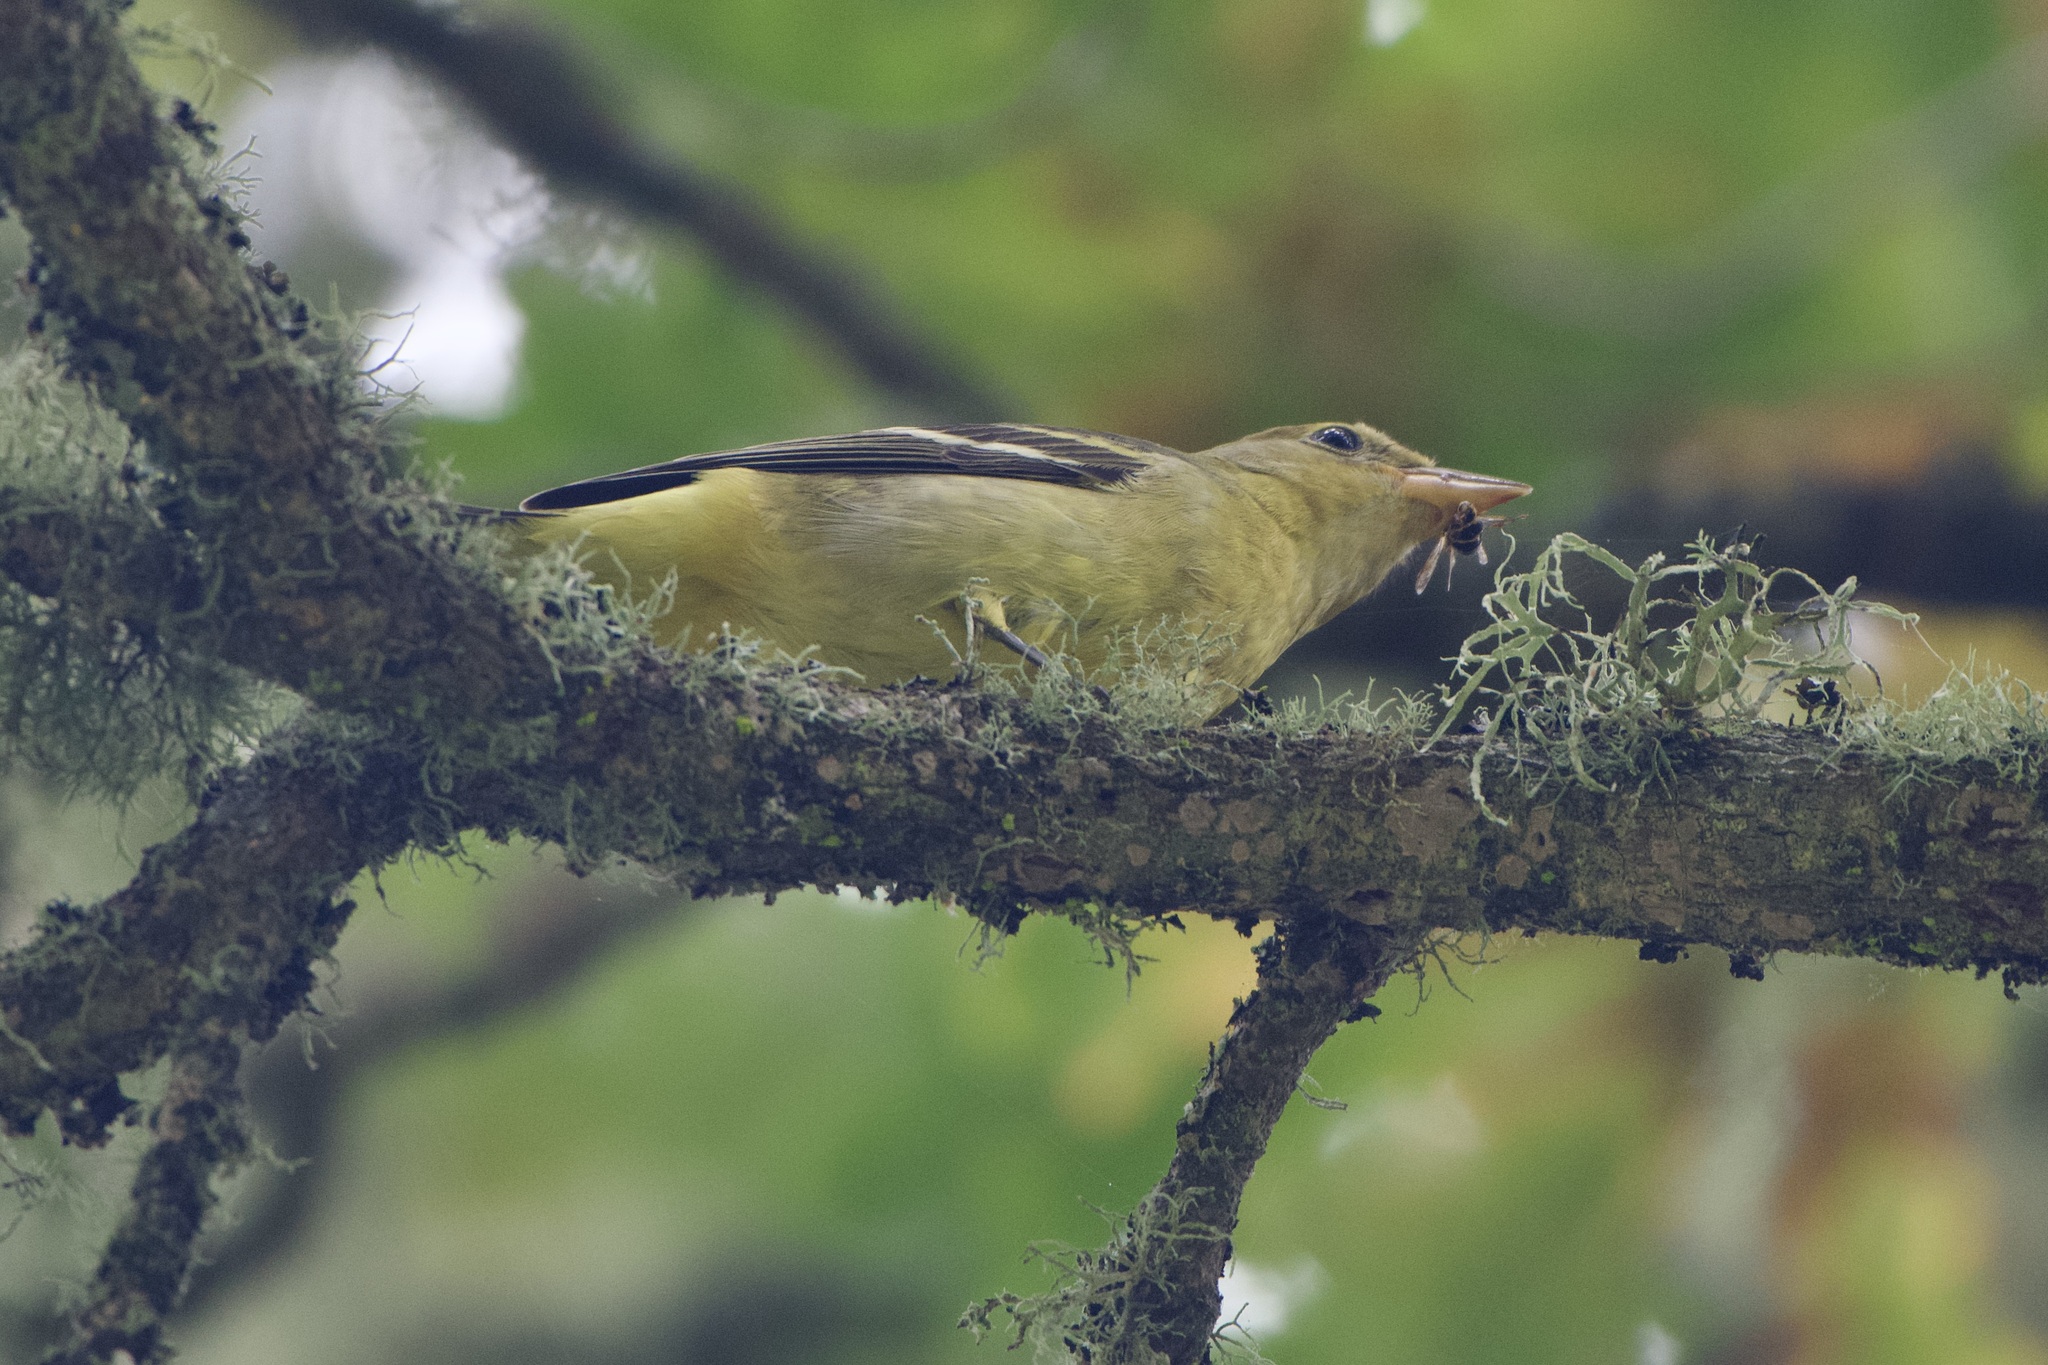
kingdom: Animalia
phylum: Chordata
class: Aves
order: Passeriformes
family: Cardinalidae
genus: Piranga
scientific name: Piranga ludoviciana
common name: Western tanager
